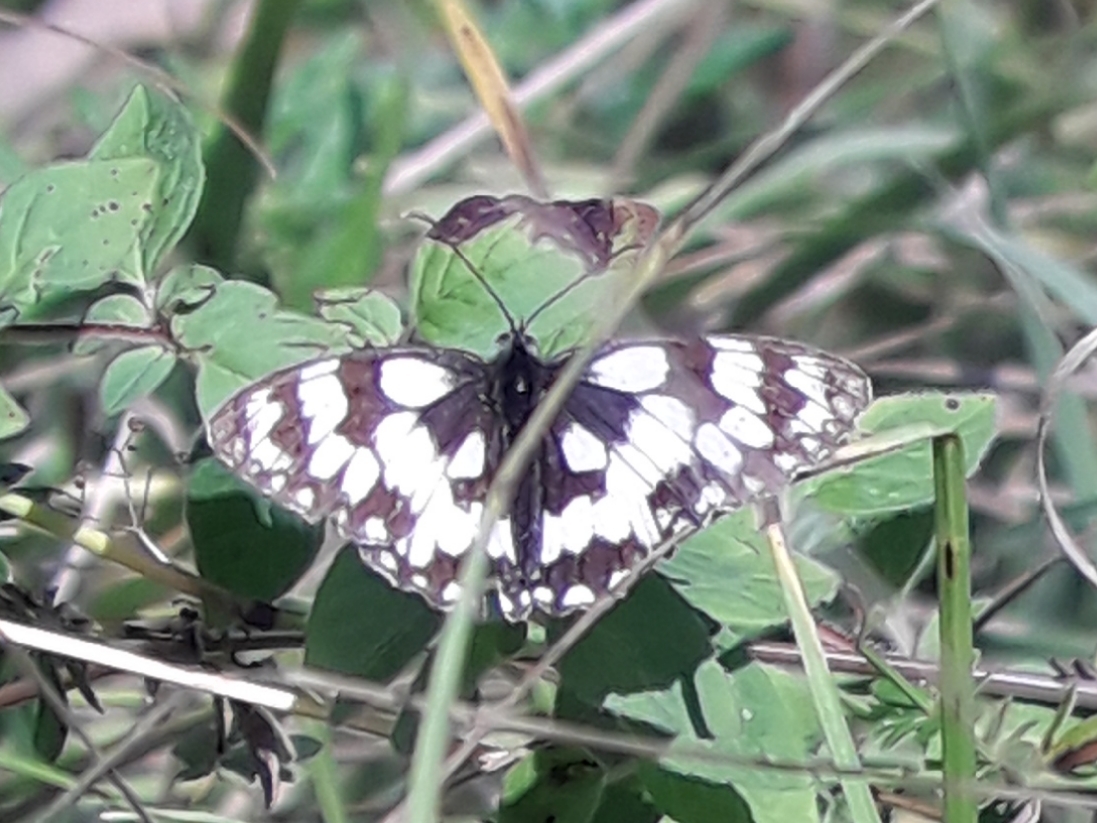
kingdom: Animalia
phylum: Arthropoda
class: Insecta
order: Lepidoptera
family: Nymphalidae
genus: Melanargia
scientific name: Melanargia galathea
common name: Marbled white
